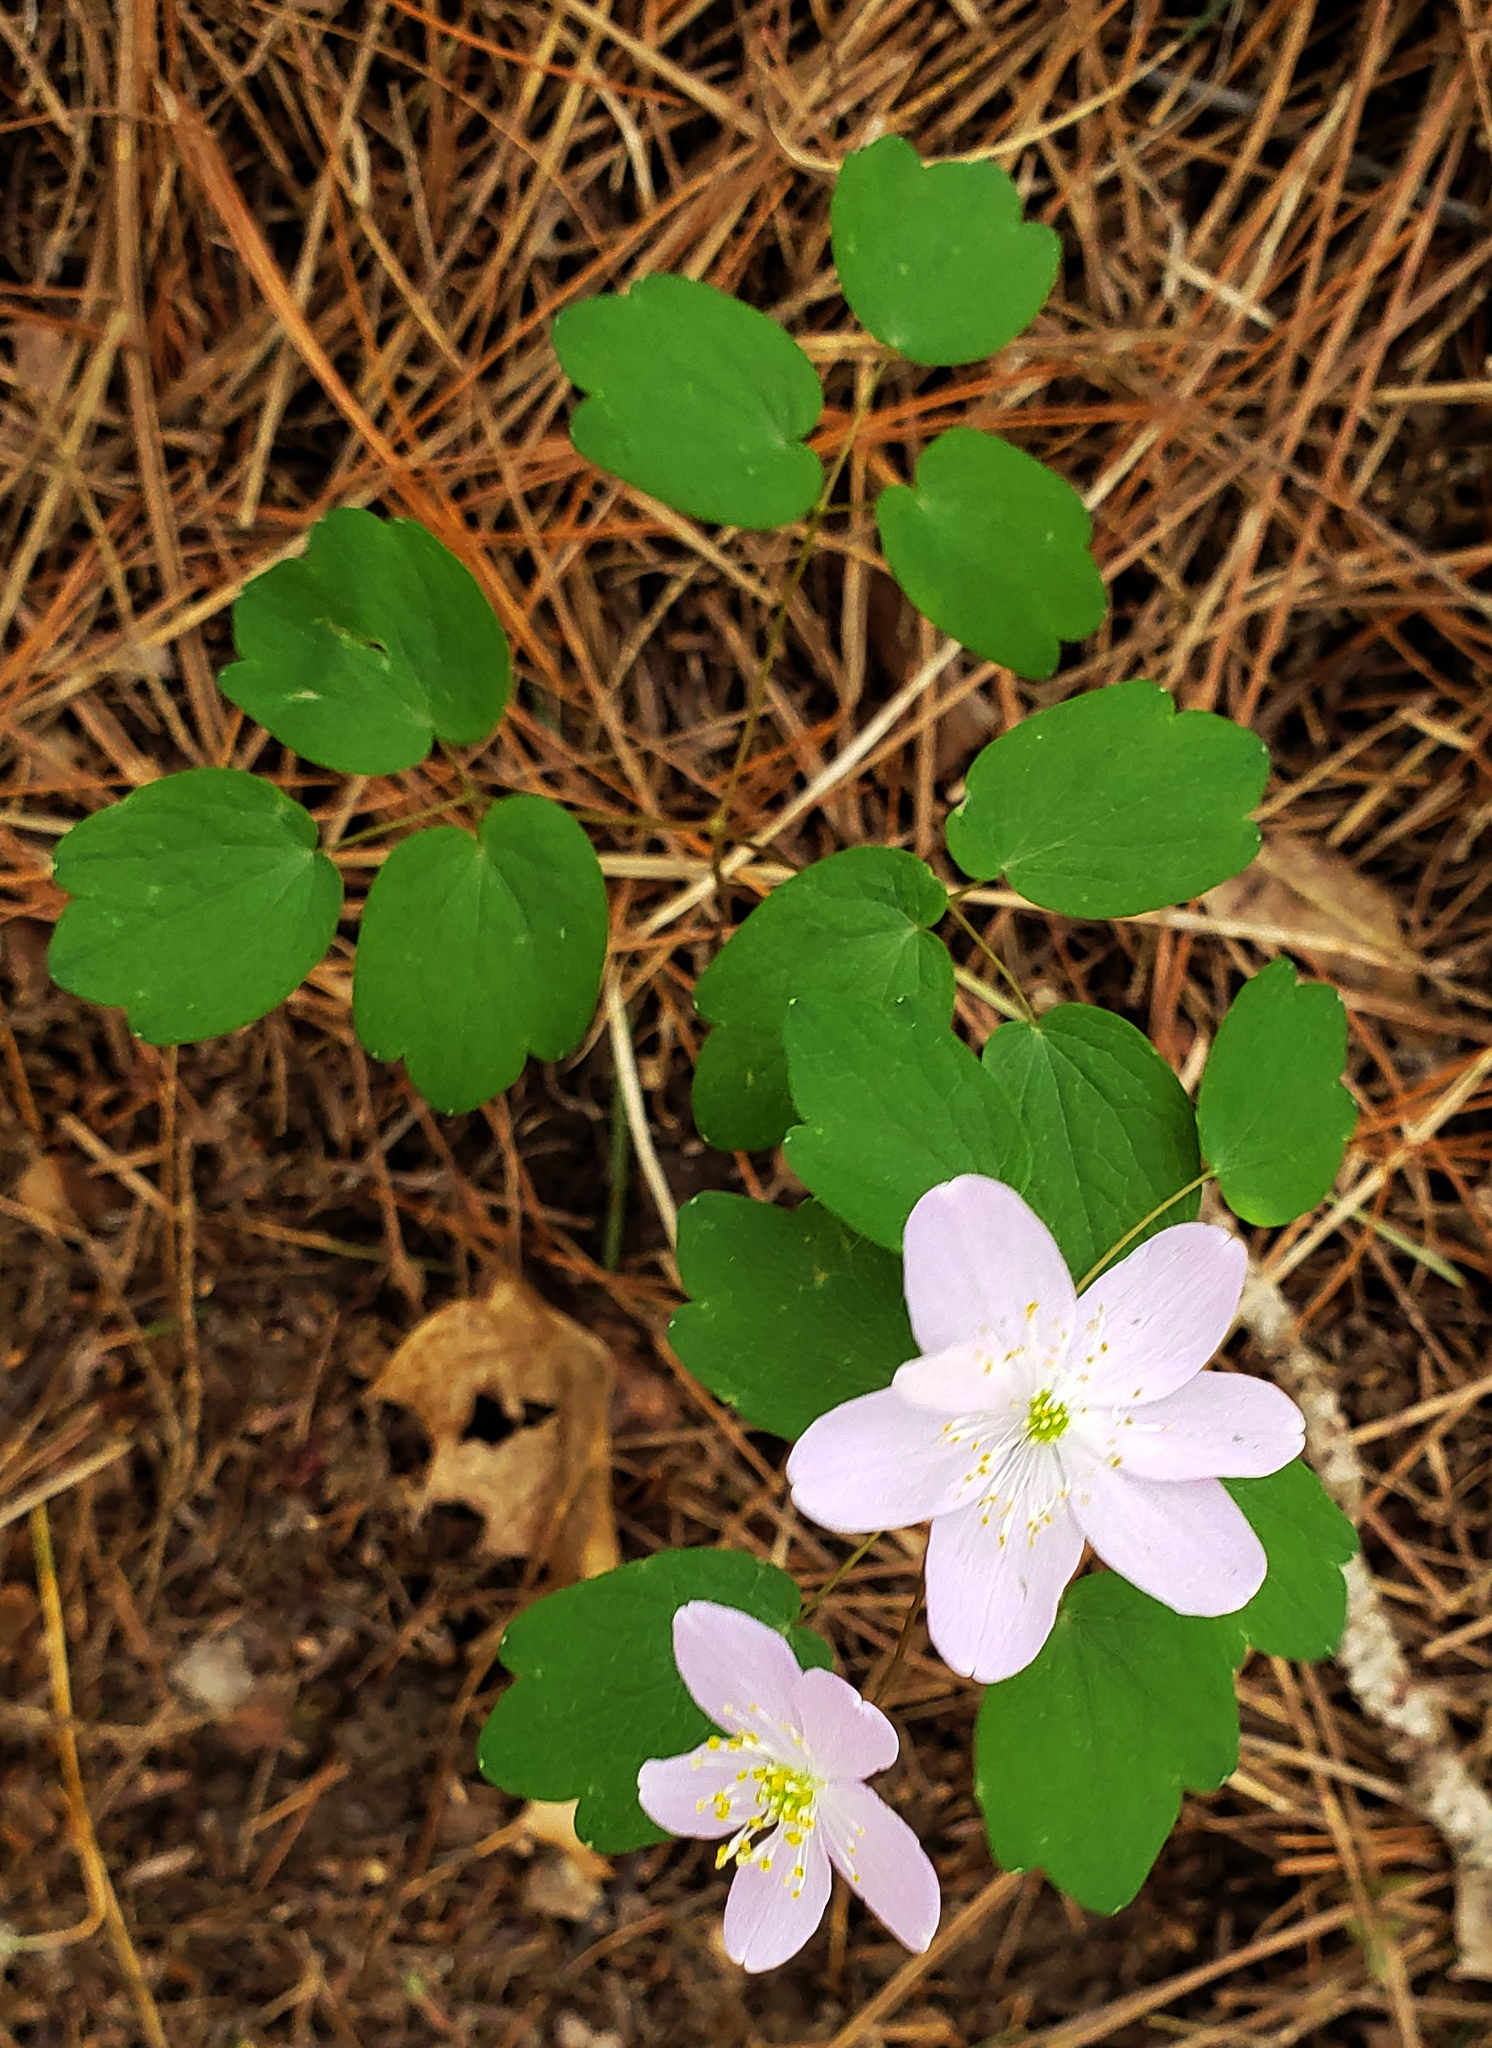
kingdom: Plantae
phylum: Tracheophyta
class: Magnoliopsida
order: Ranunculales
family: Ranunculaceae
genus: Thalictrum
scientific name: Thalictrum thalictroides
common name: Rue-anemone
